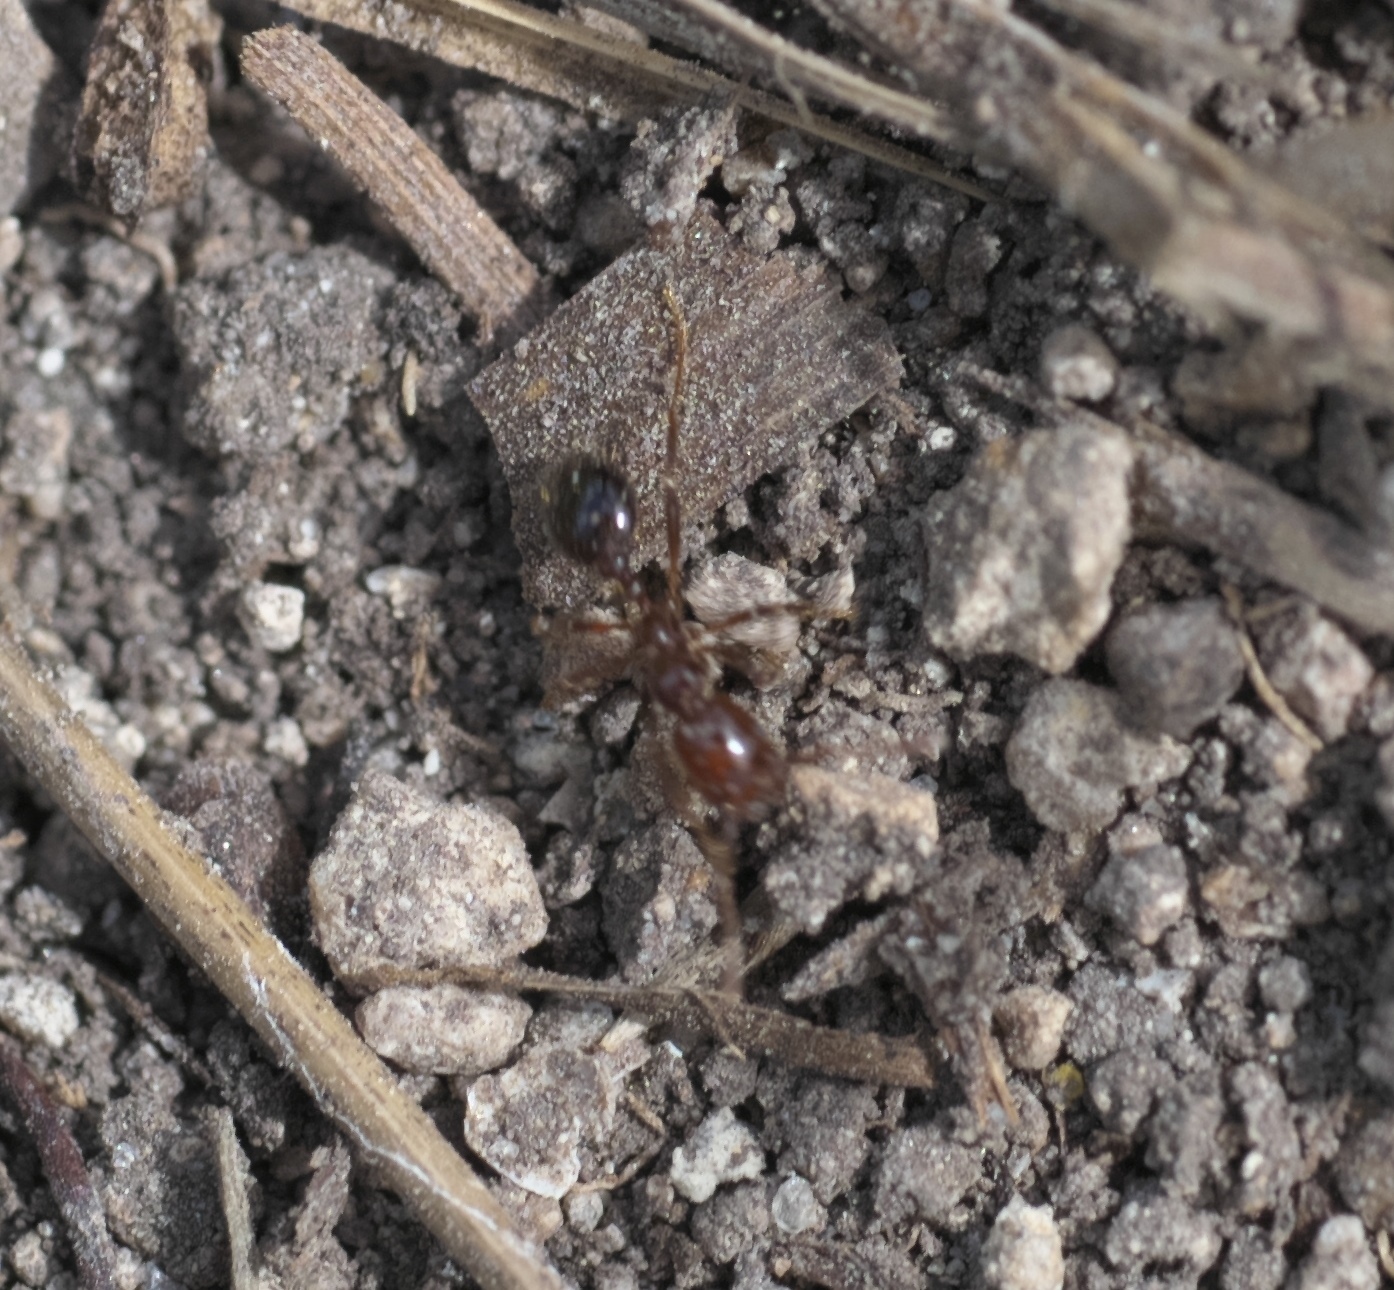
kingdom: Animalia
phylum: Arthropoda
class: Insecta
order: Hymenoptera
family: Formicidae
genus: Solenopsis
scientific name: Solenopsis invicta
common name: Red imported fire ant
